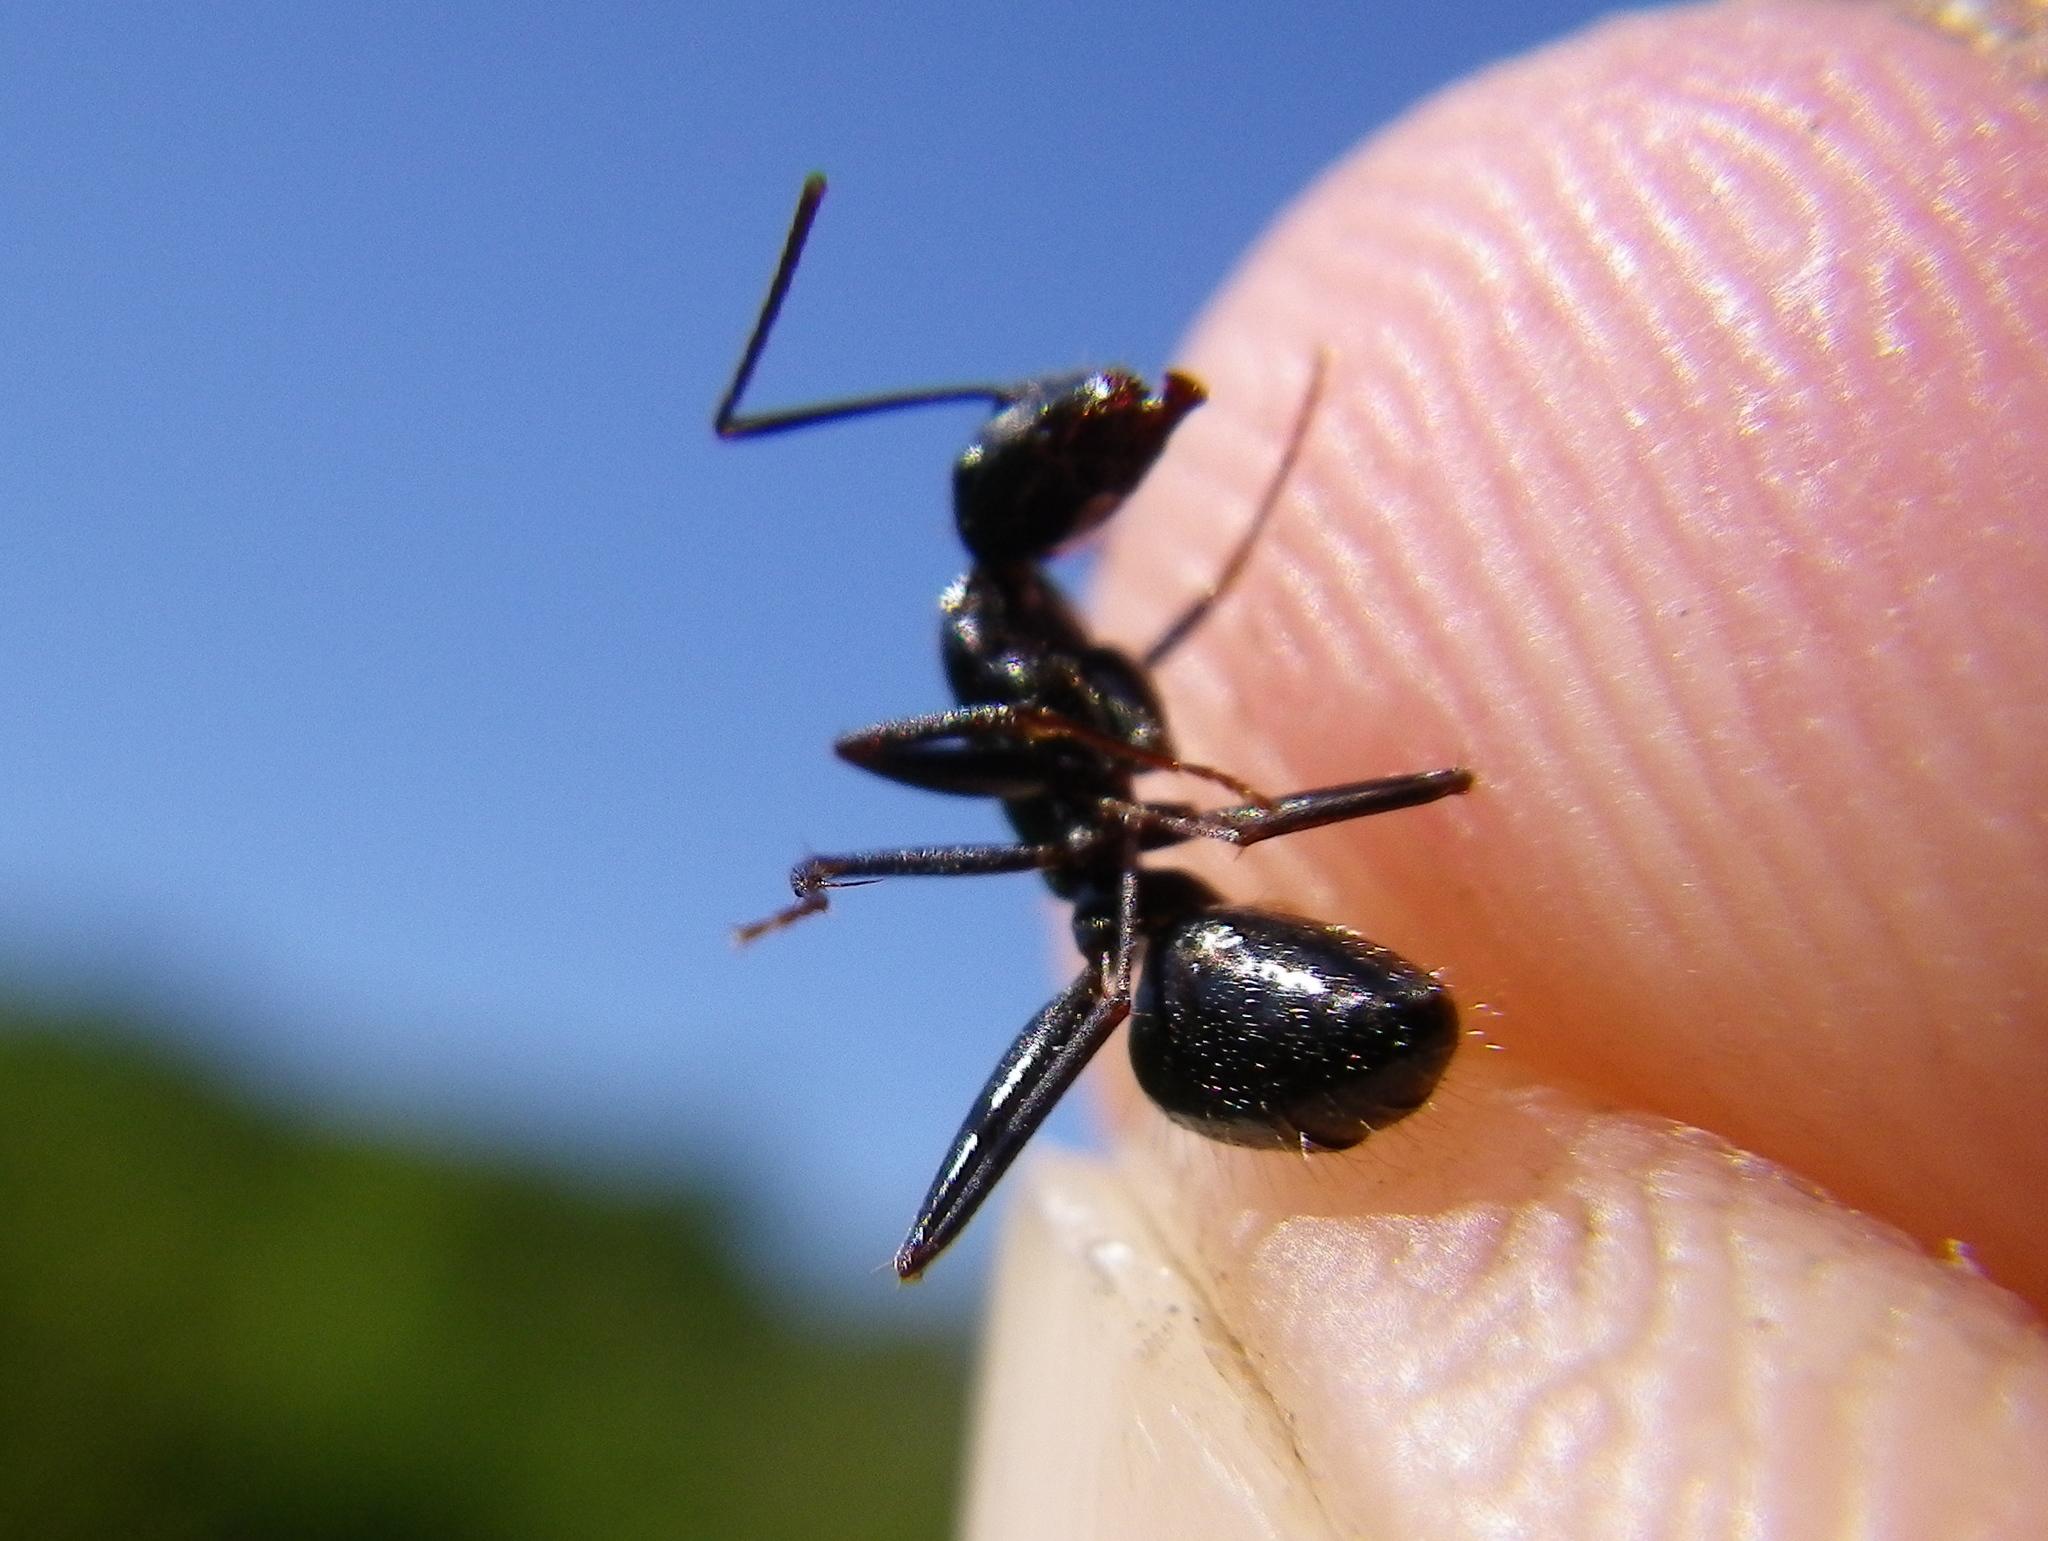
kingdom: Animalia
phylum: Arthropoda
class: Insecta
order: Hymenoptera
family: Formicidae
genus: Camponotus
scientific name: Camponotus aethiops
